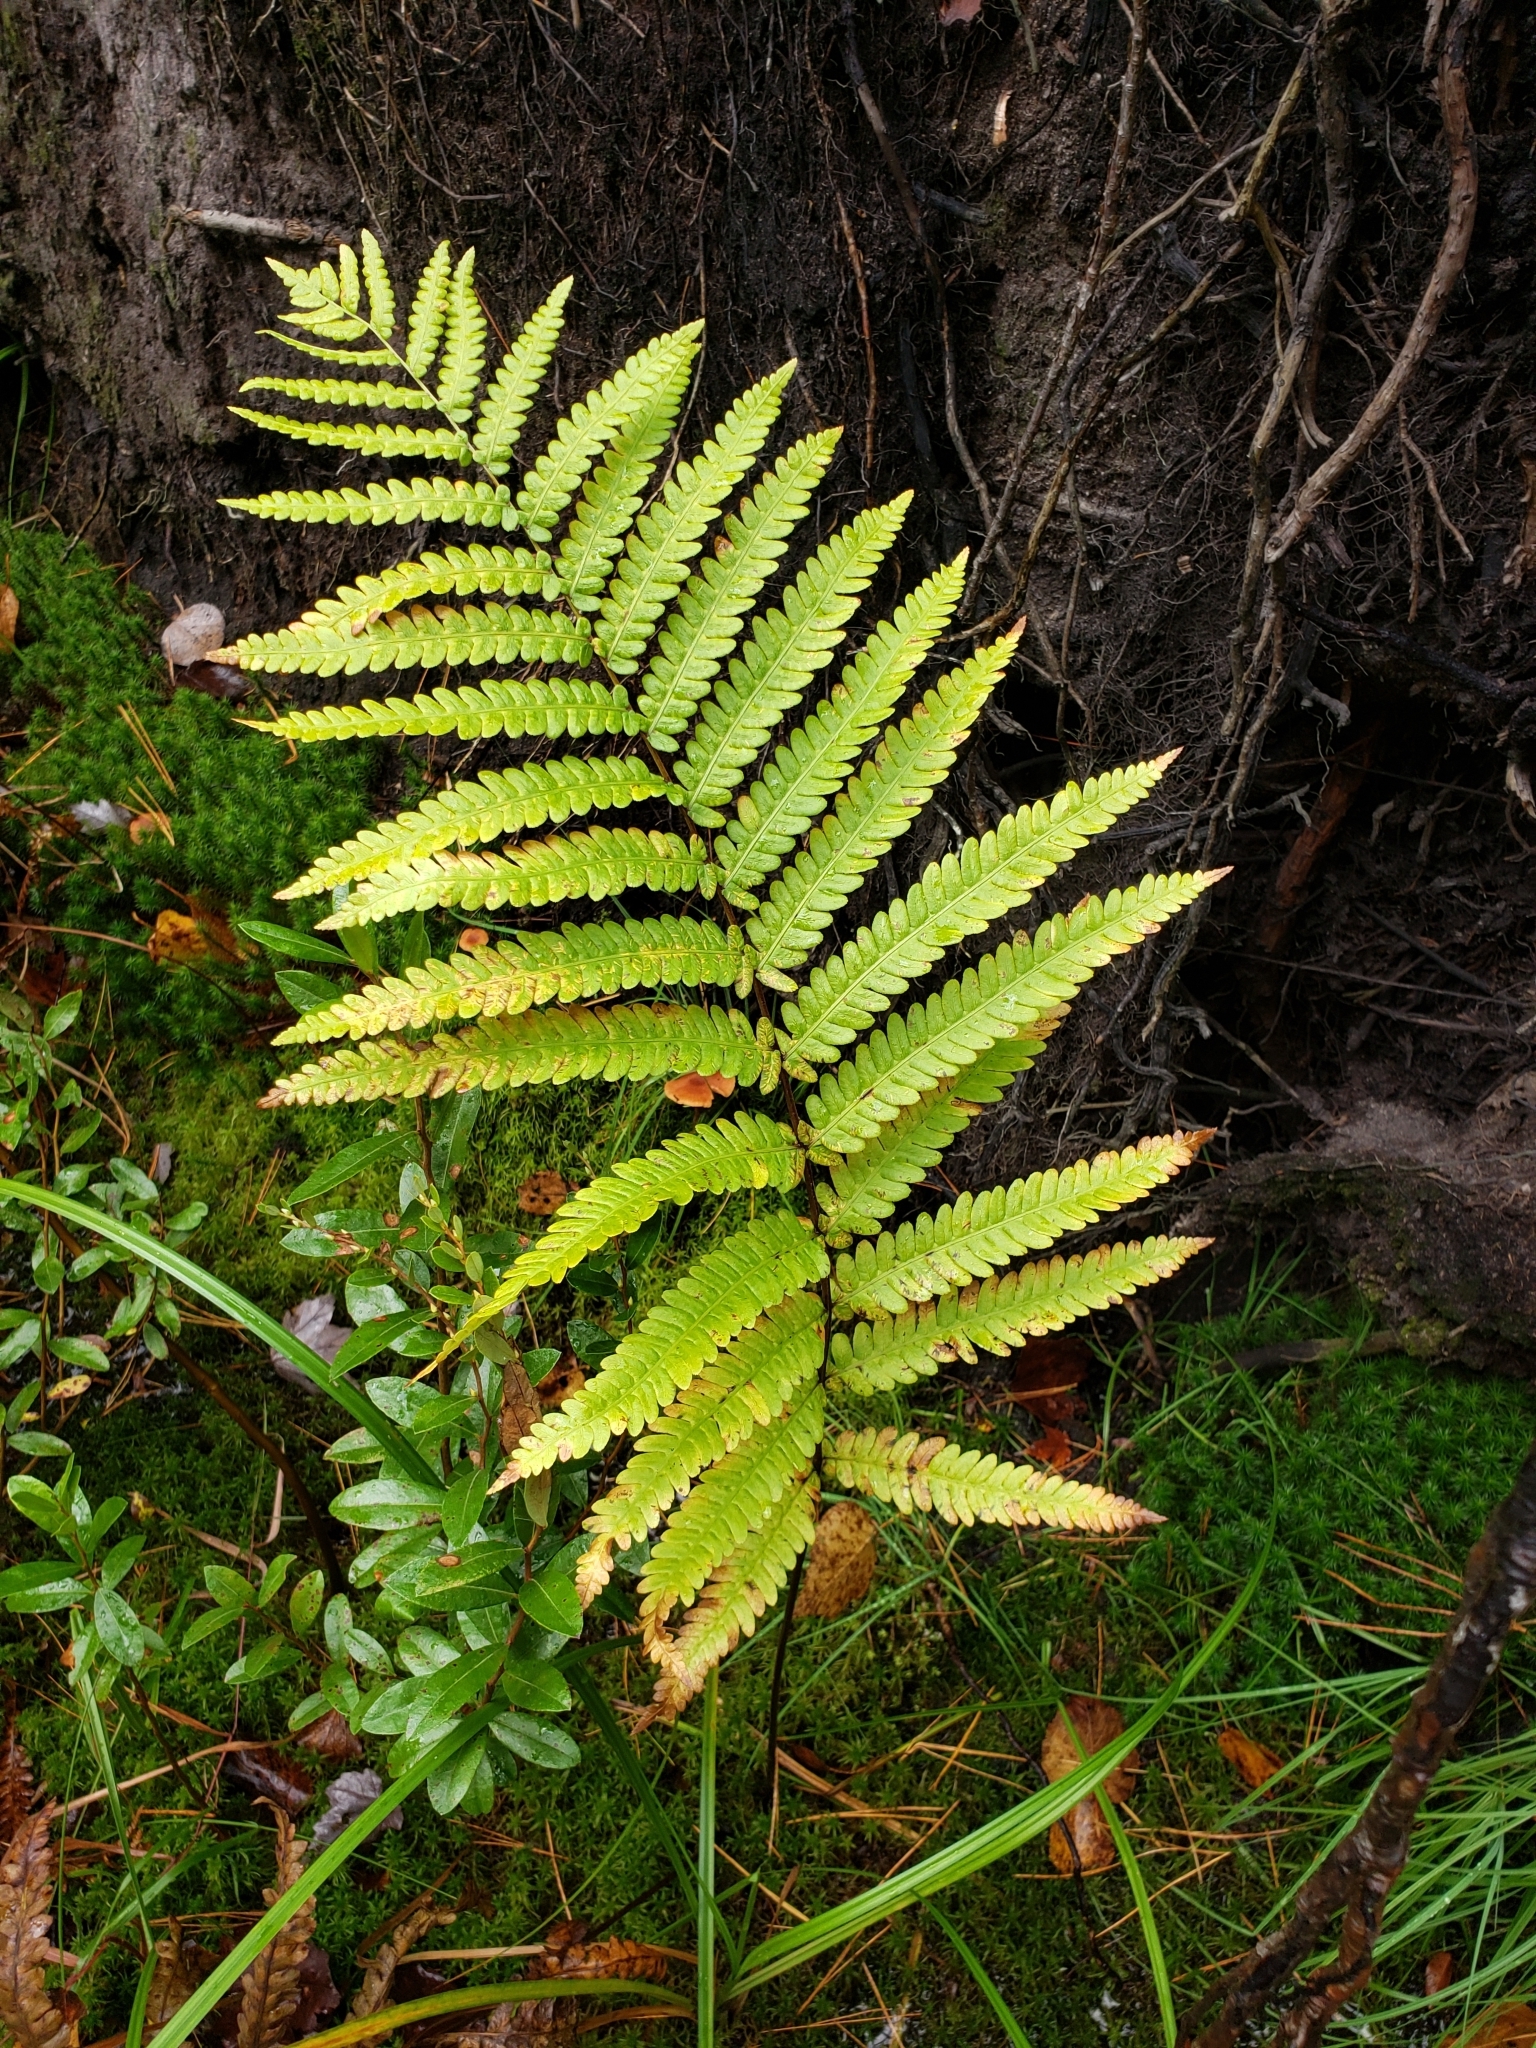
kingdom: Plantae
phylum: Tracheophyta
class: Polypodiopsida
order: Polypodiales
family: Blechnaceae
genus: Anchistea
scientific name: Anchistea virginica
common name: Virginia chain fern
